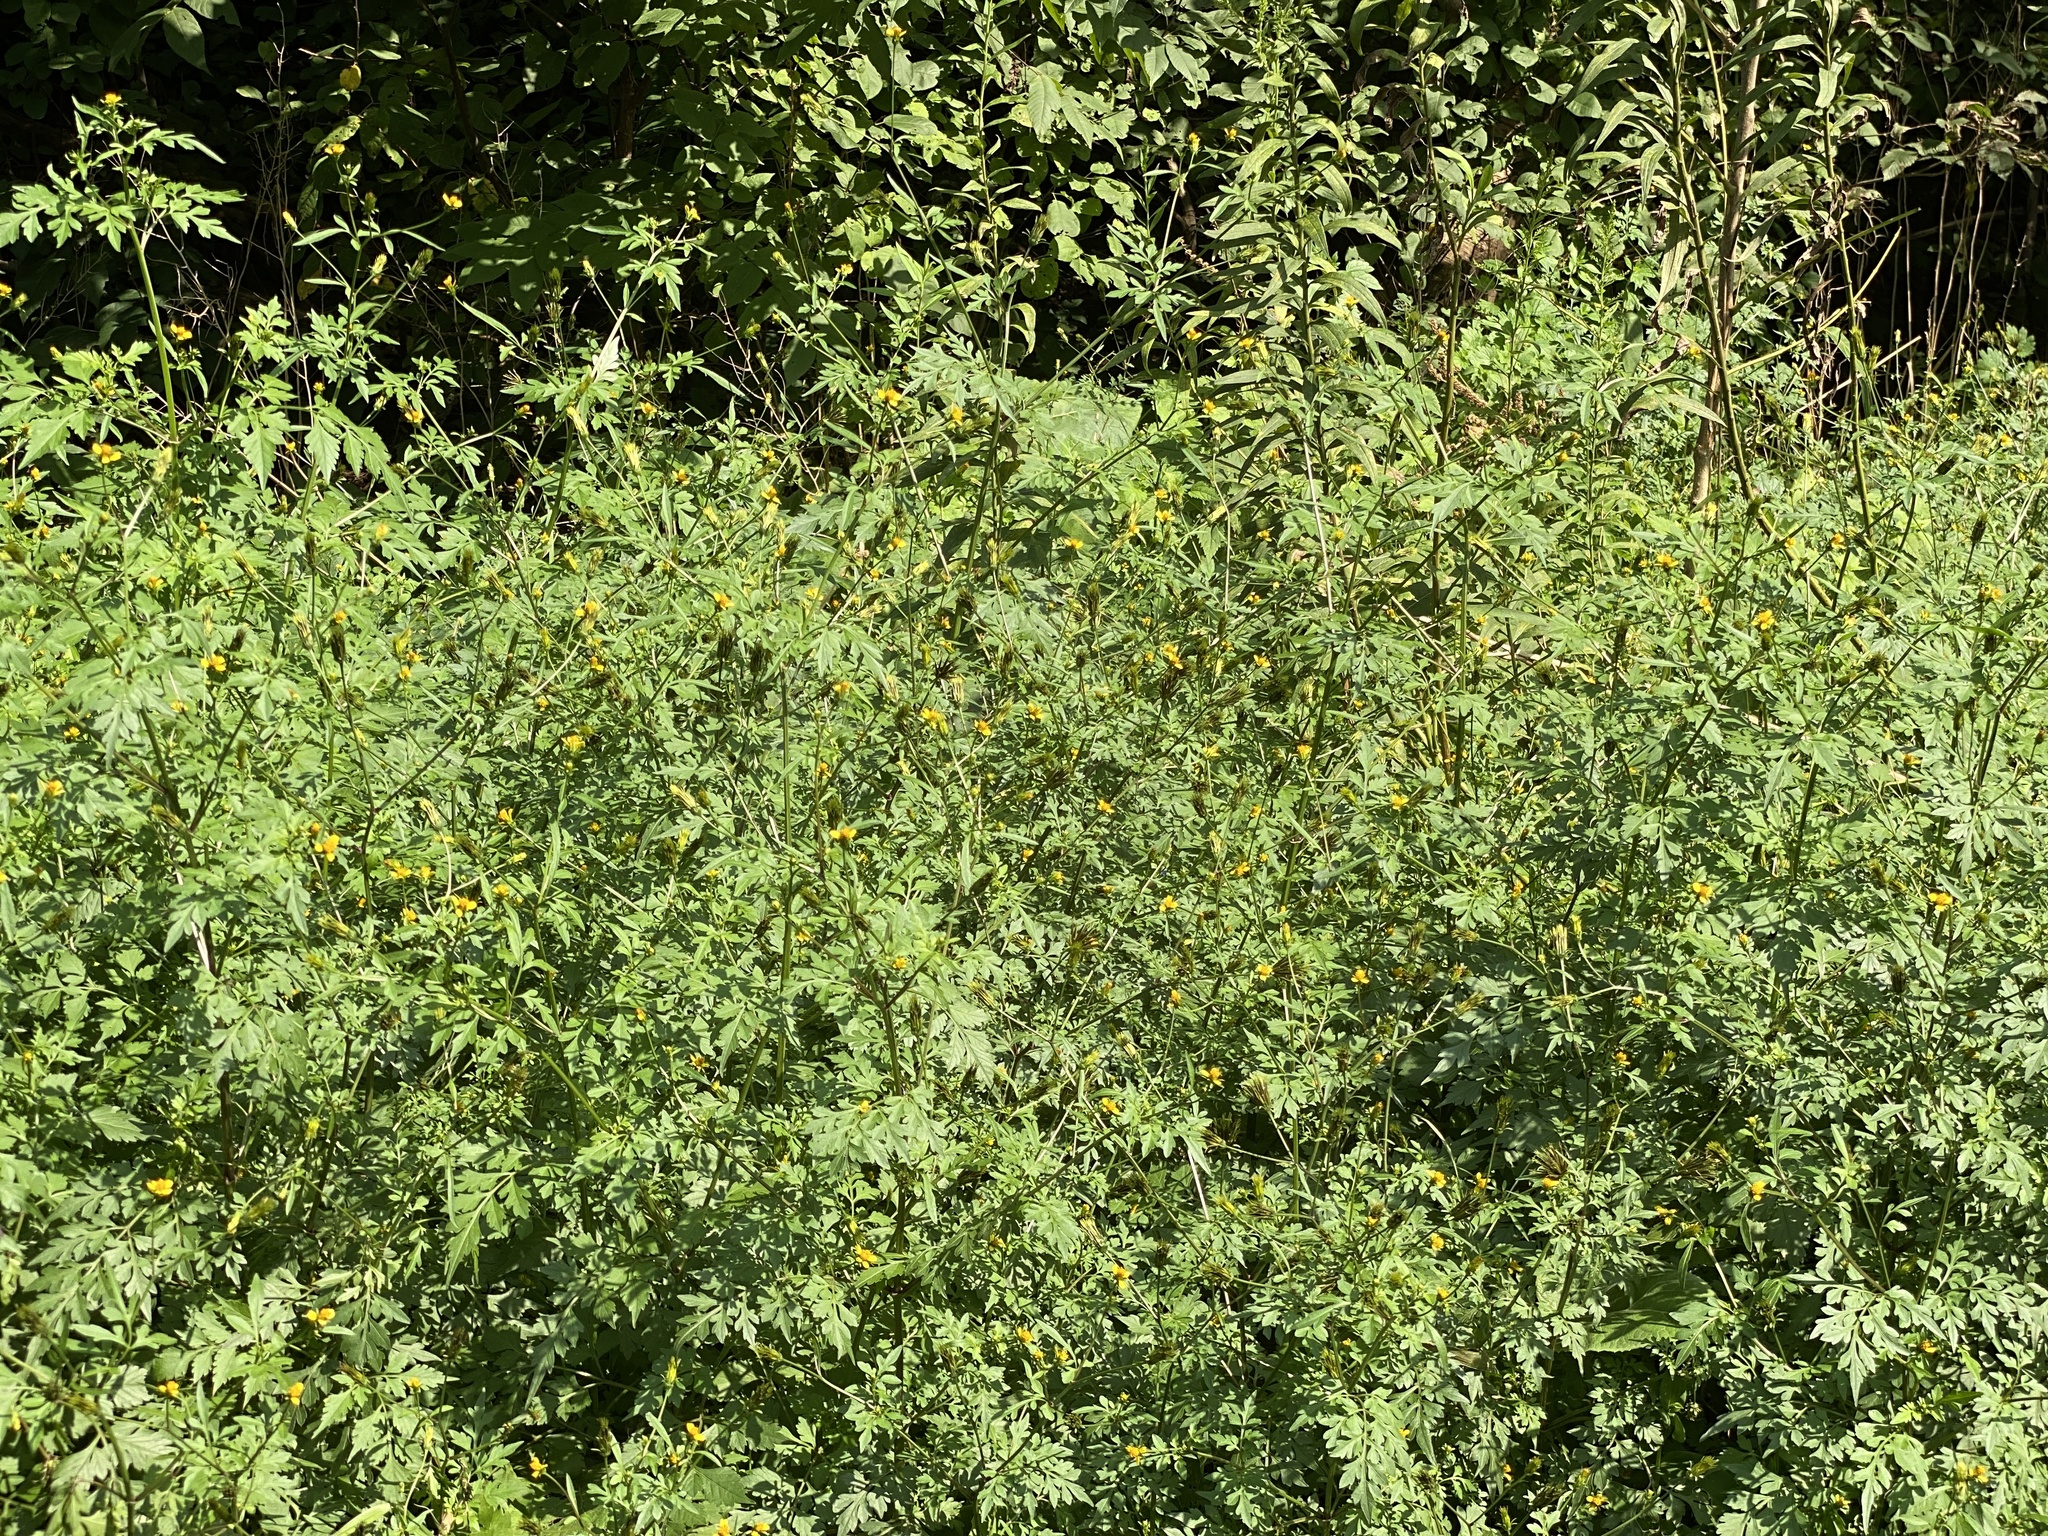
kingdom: Plantae
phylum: Tracheophyta
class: Magnoliopsida
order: Asterales
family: Asteraceae
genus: Bidens
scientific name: Bidens bipinnata
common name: Spanish-needles
